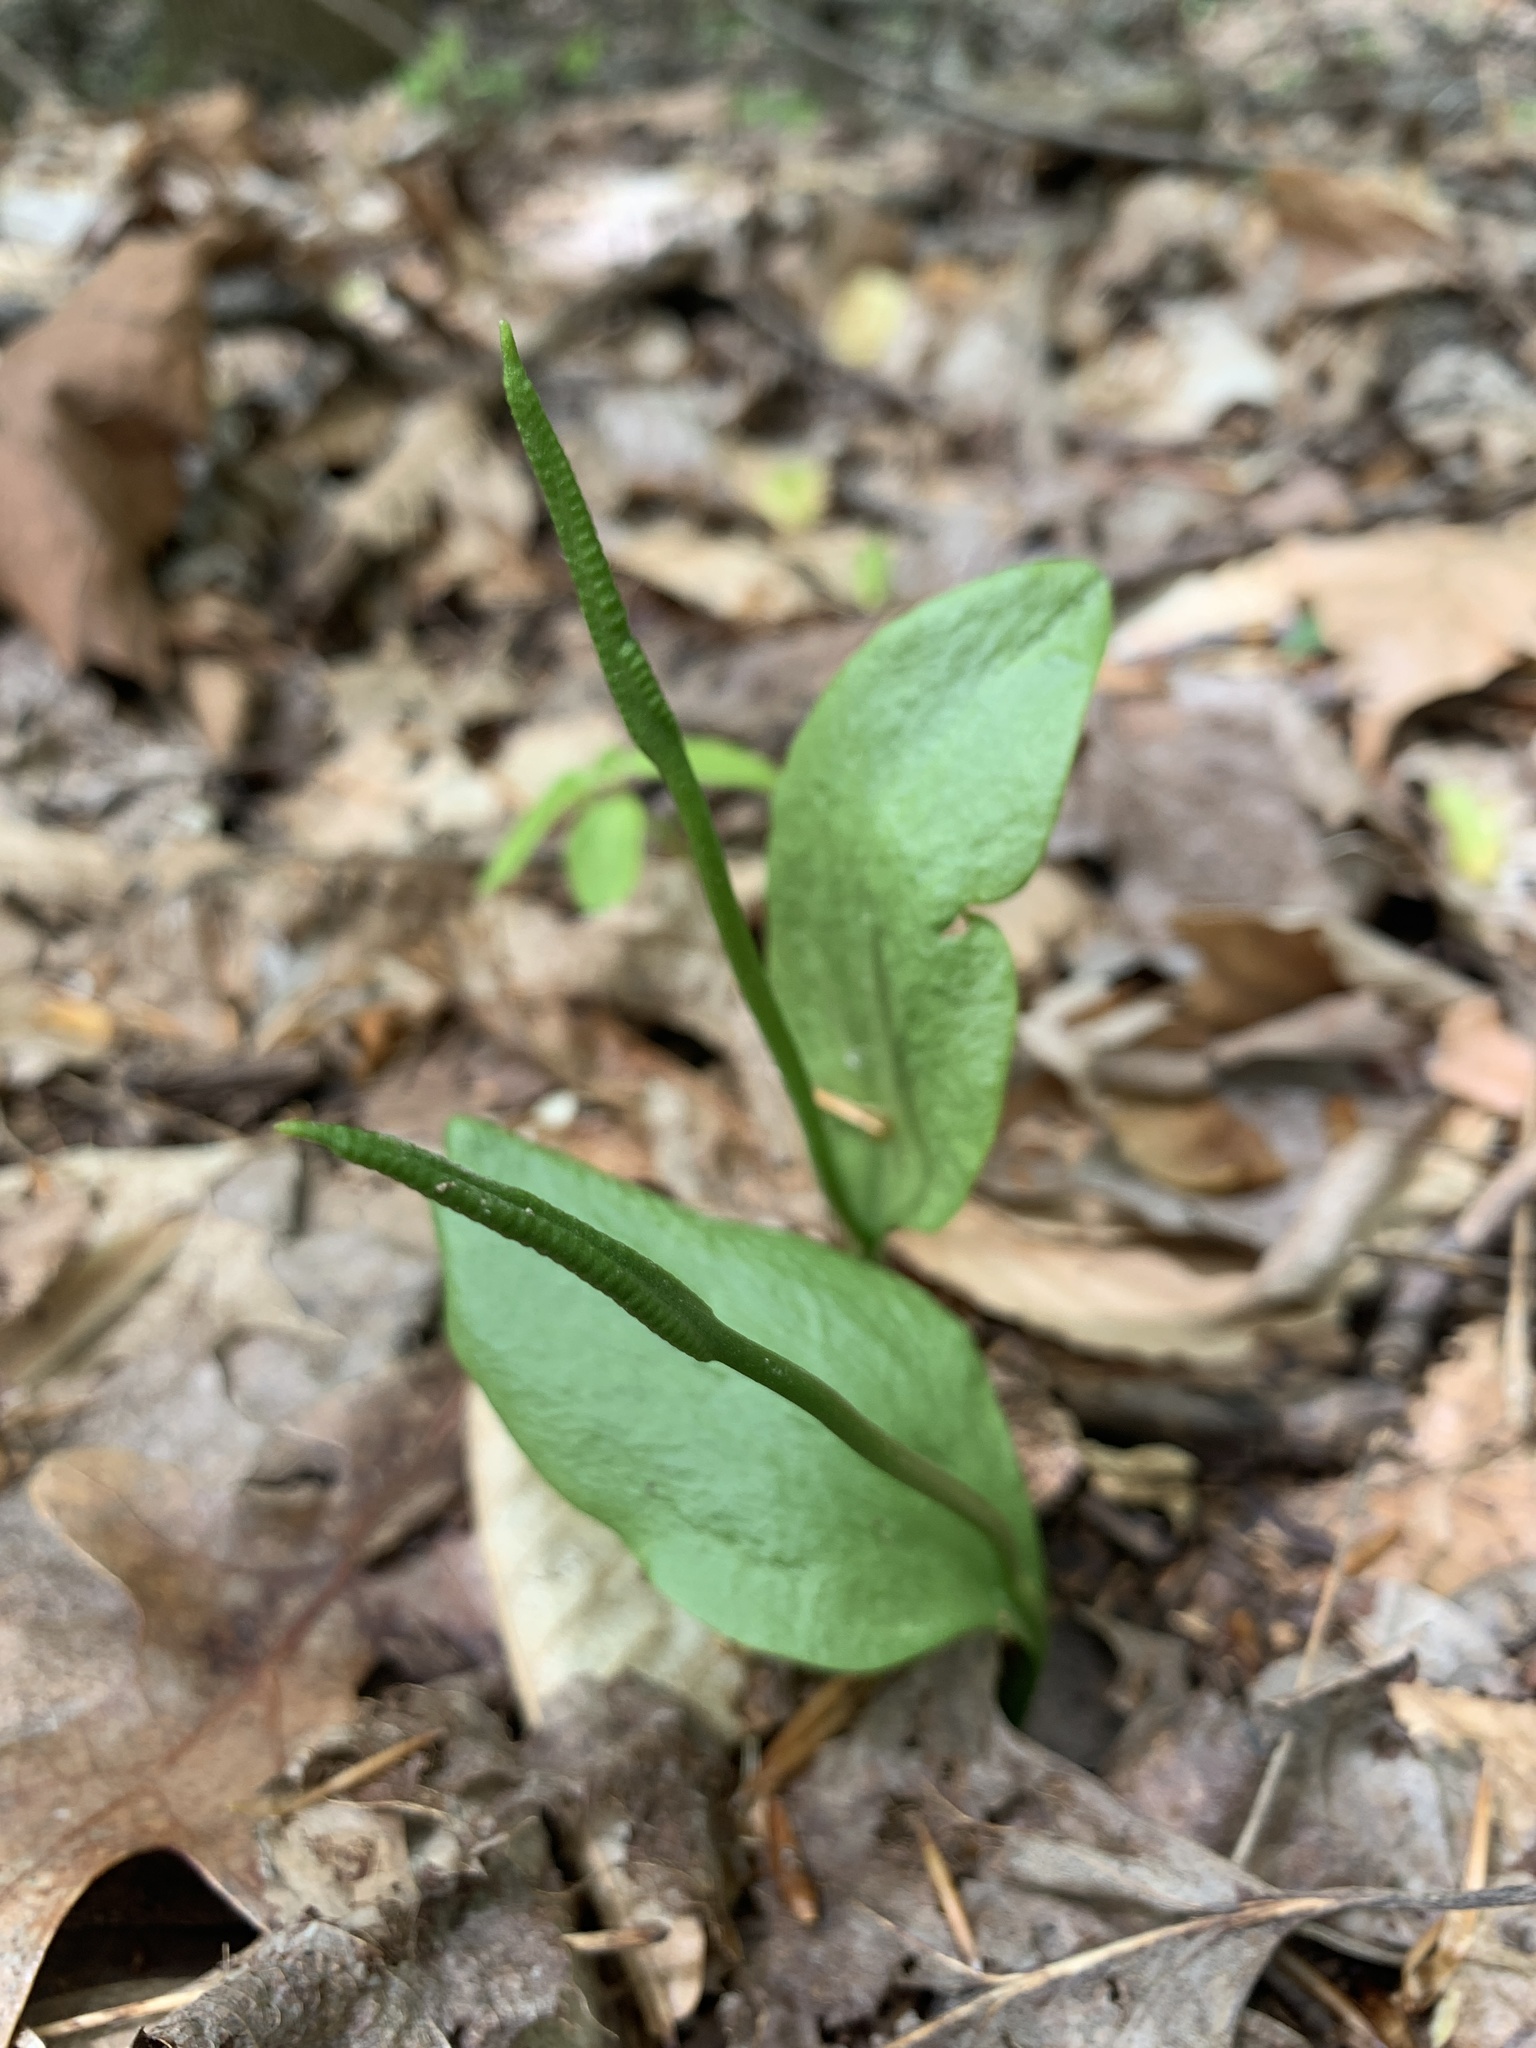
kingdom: Plantae
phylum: Tracheophyta
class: Polypodiopsida
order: Ophioglossales
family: Ophioglossaceae
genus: Ophioglossum
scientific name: Ophioglossum vulgatum
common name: Adder's-tongue
